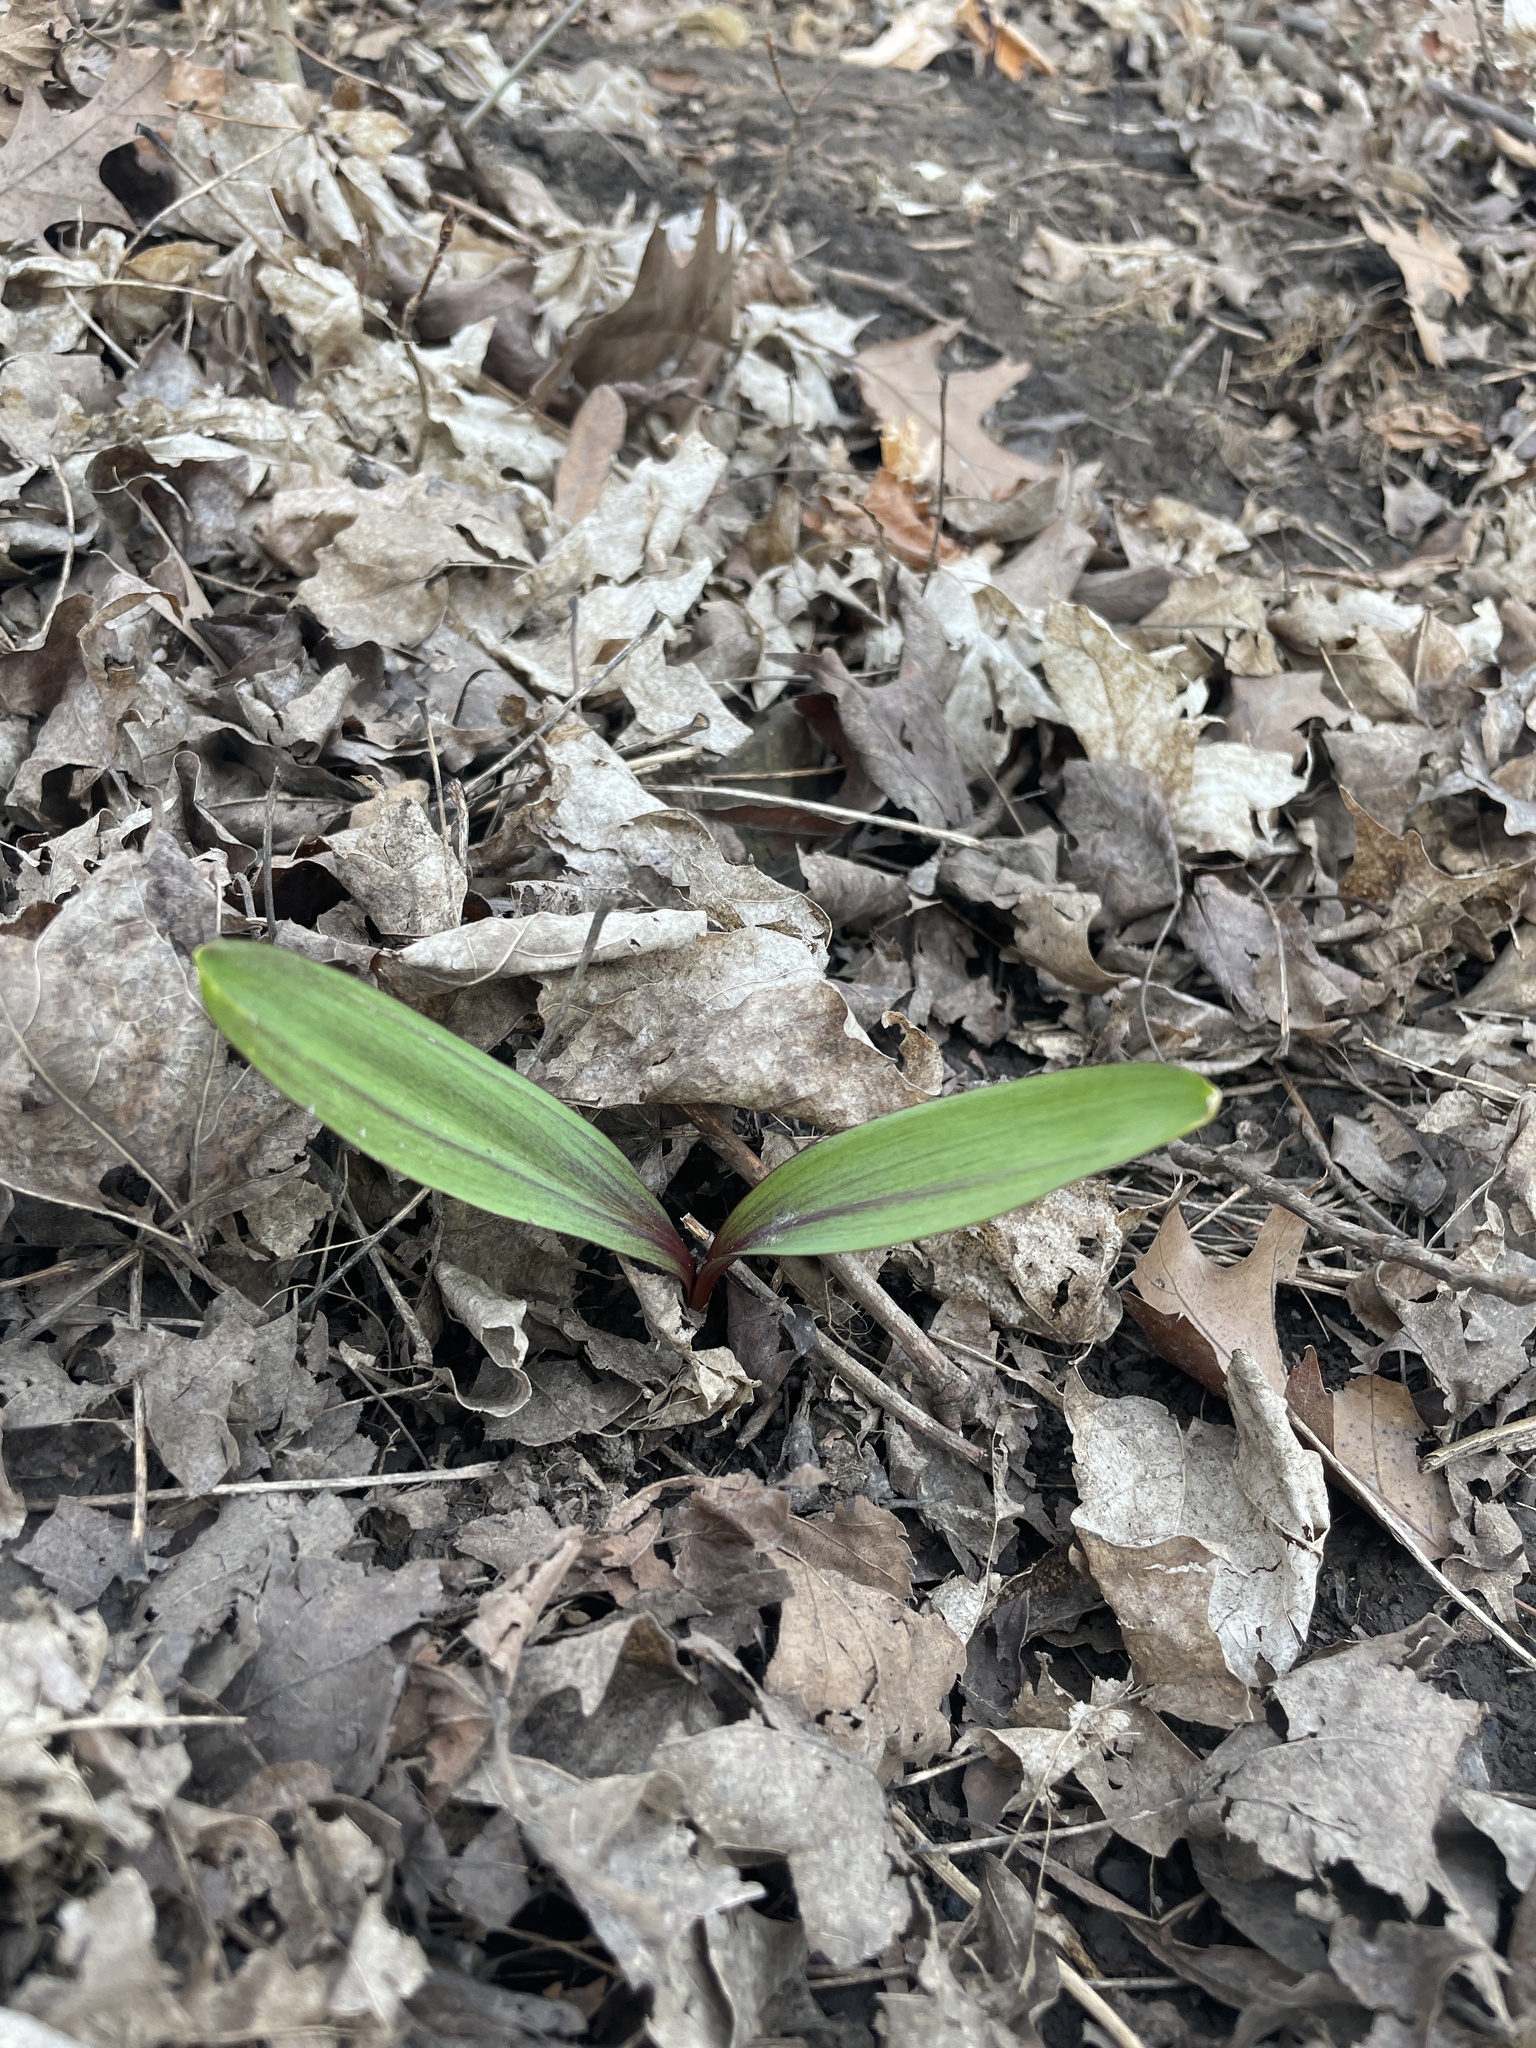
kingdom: Plantae
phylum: Tracheophyta
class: Liliopsida
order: Asparagales
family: Amaryllidaceae
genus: Allium
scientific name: Allium tricoccum
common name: Ramp
